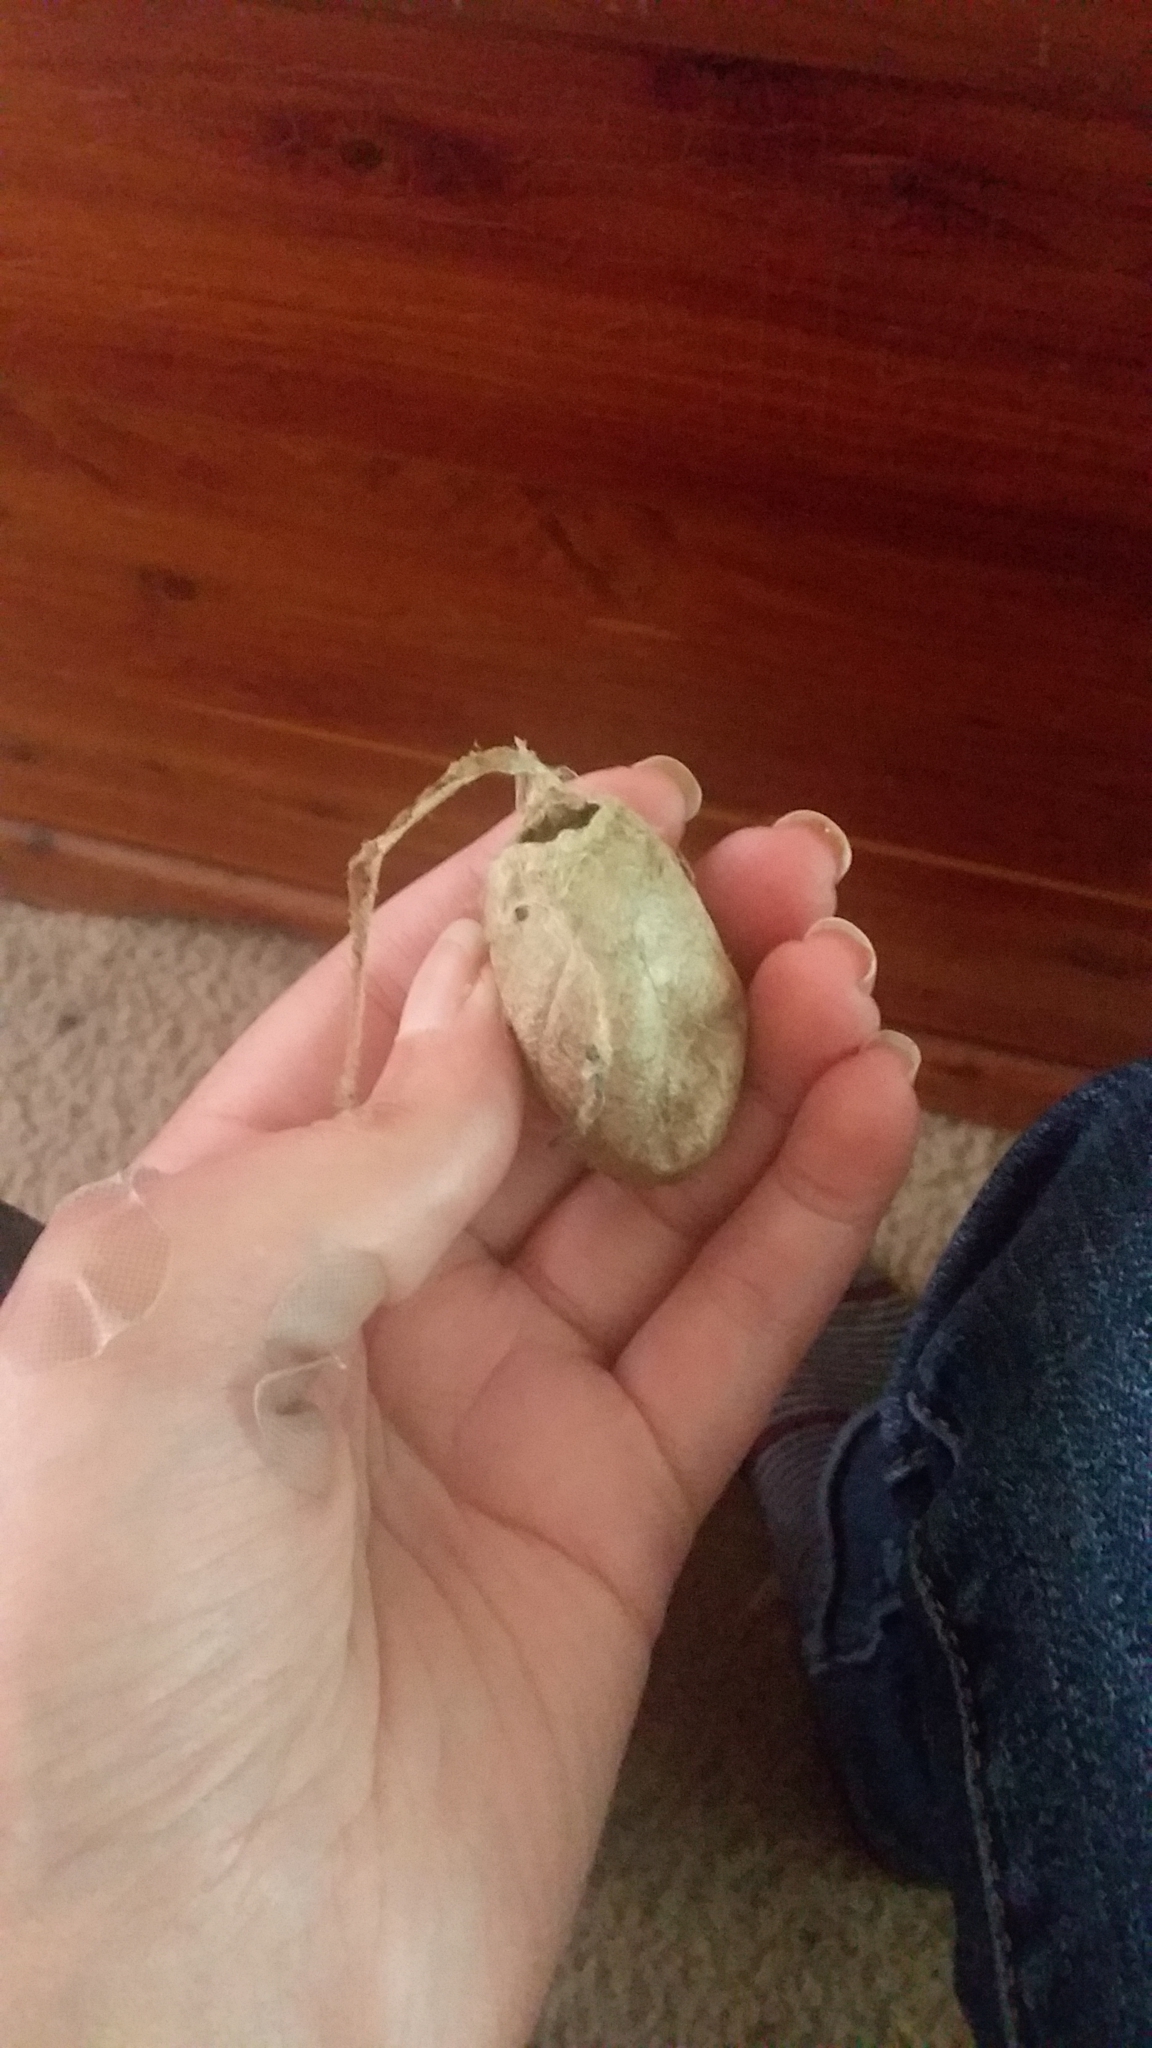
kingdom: Animalia
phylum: Arthropoda
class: Insecta
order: Lepidoptera
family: Saturniidae
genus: Antheraea
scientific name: Antheraea polyphemus
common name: Polyphemus moth
